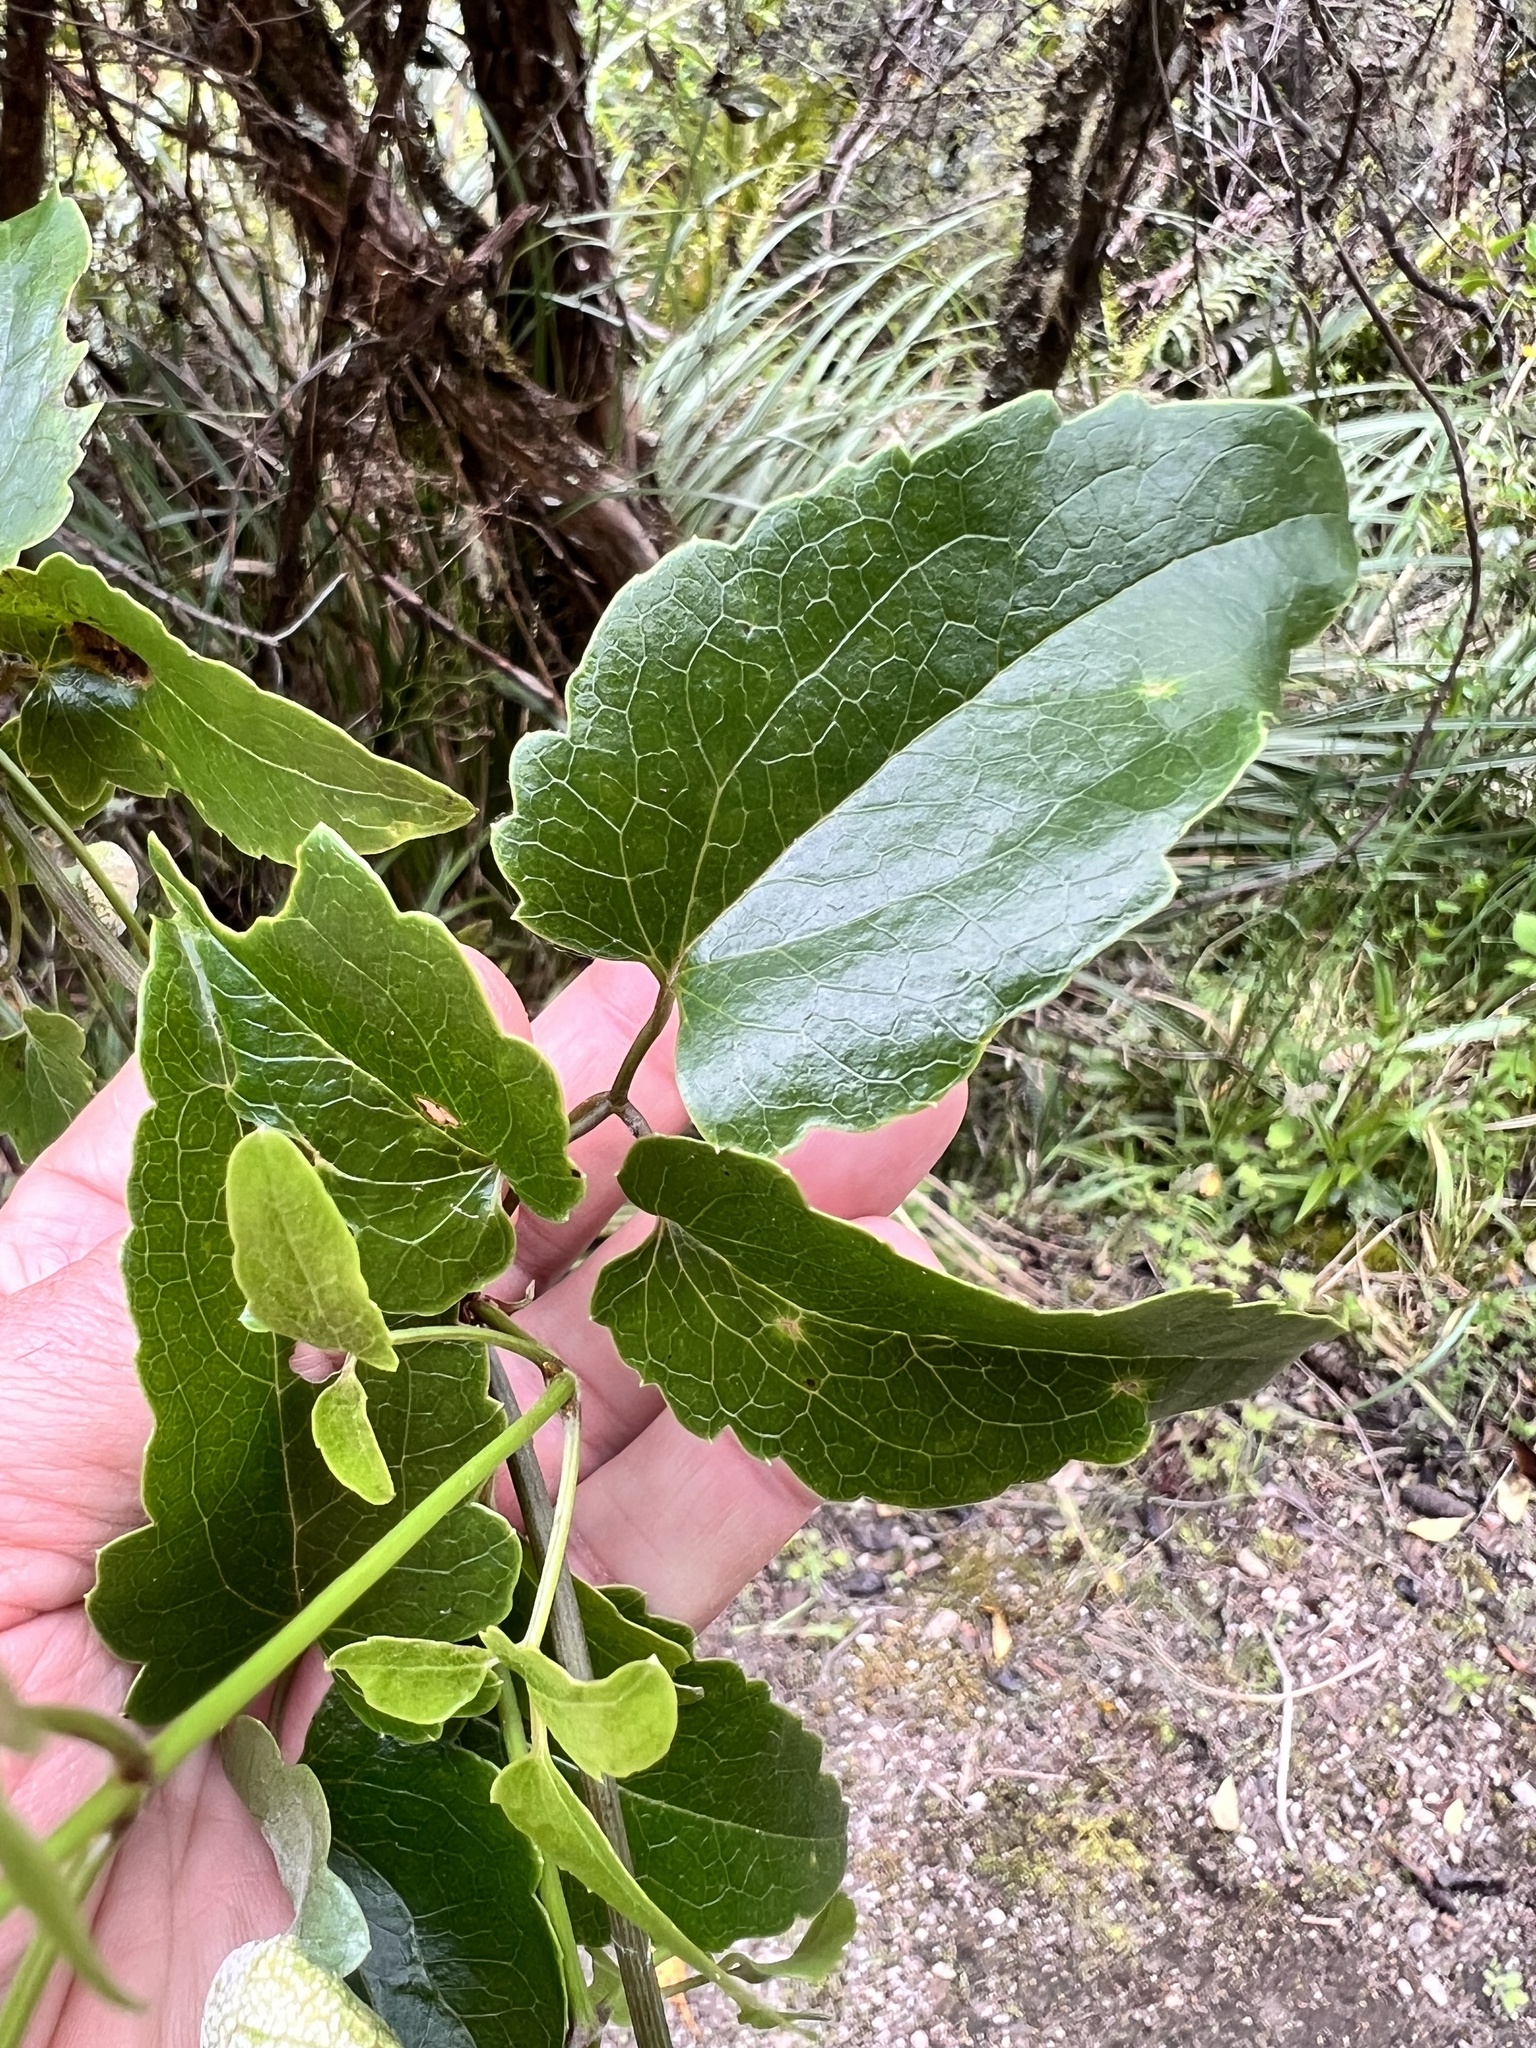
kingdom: Plantae
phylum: Tracheophyta
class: Magnoliopsida
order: Ranunculales
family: Ranunculaceae
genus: Clematis
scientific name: Clematis forsteri
